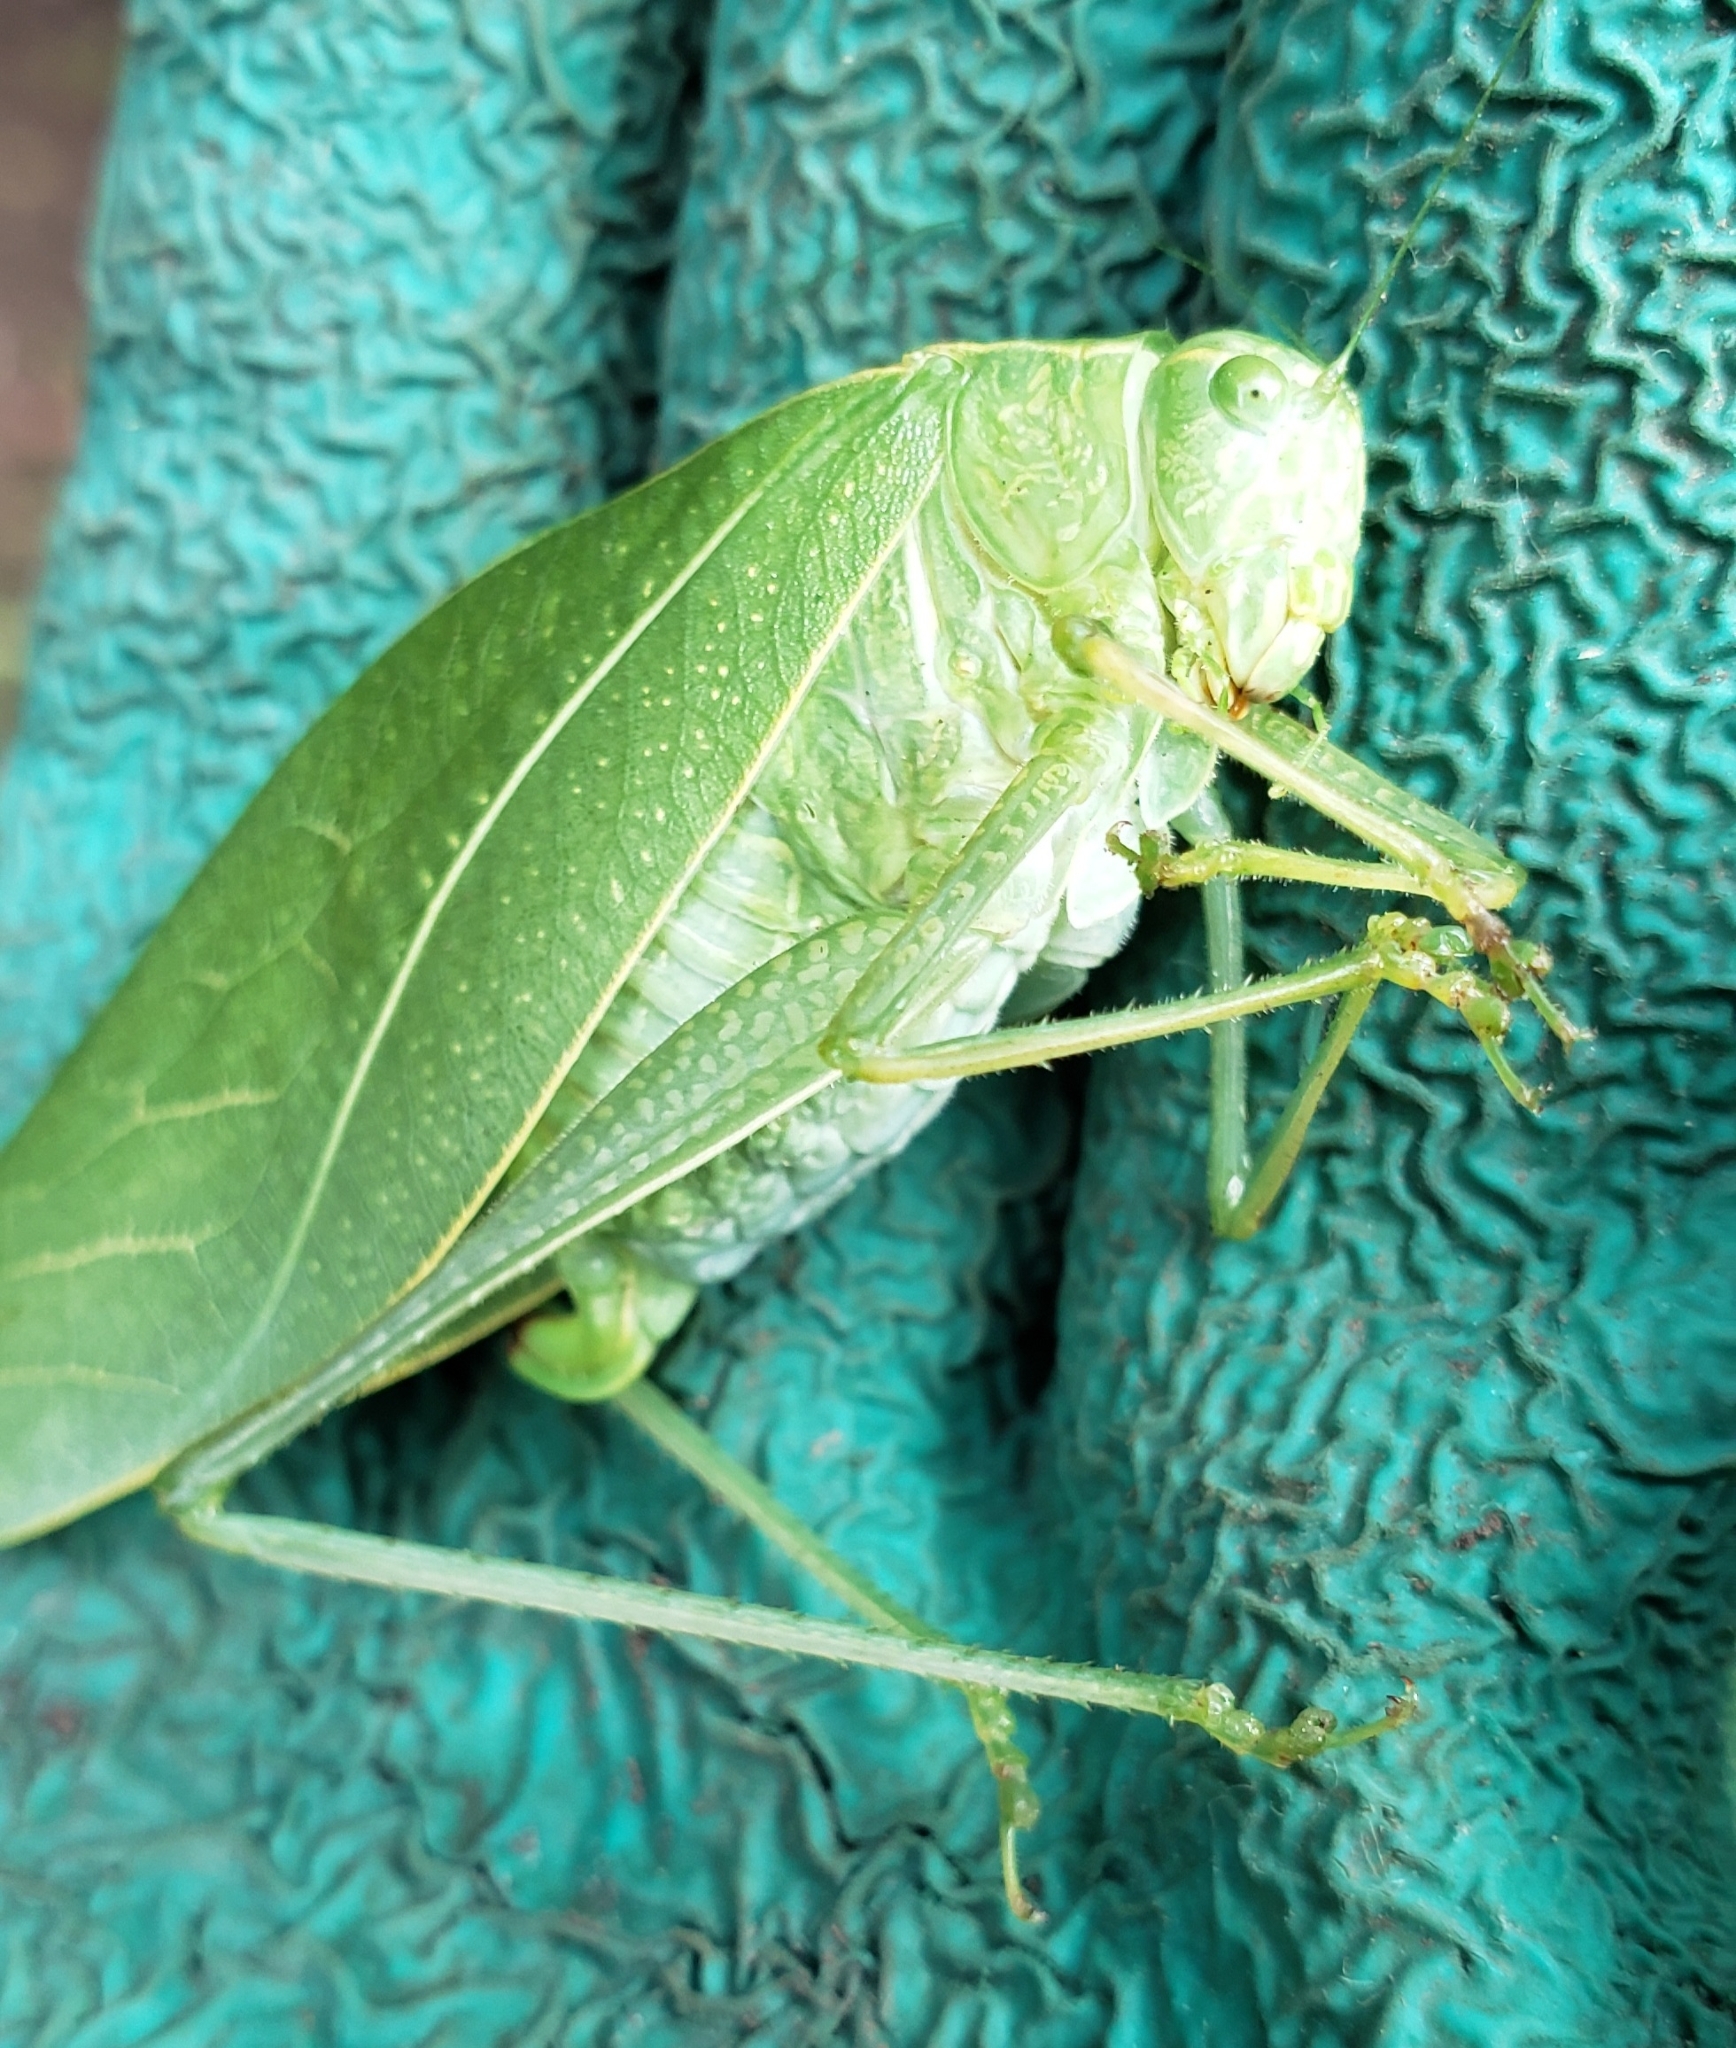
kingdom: Animalia
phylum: Arthropoda
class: Insecta
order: Orthoptera
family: Tettigoniidae
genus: Microcentrum
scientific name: Microcentrum rhombifolium
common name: Broad-winged katydid
